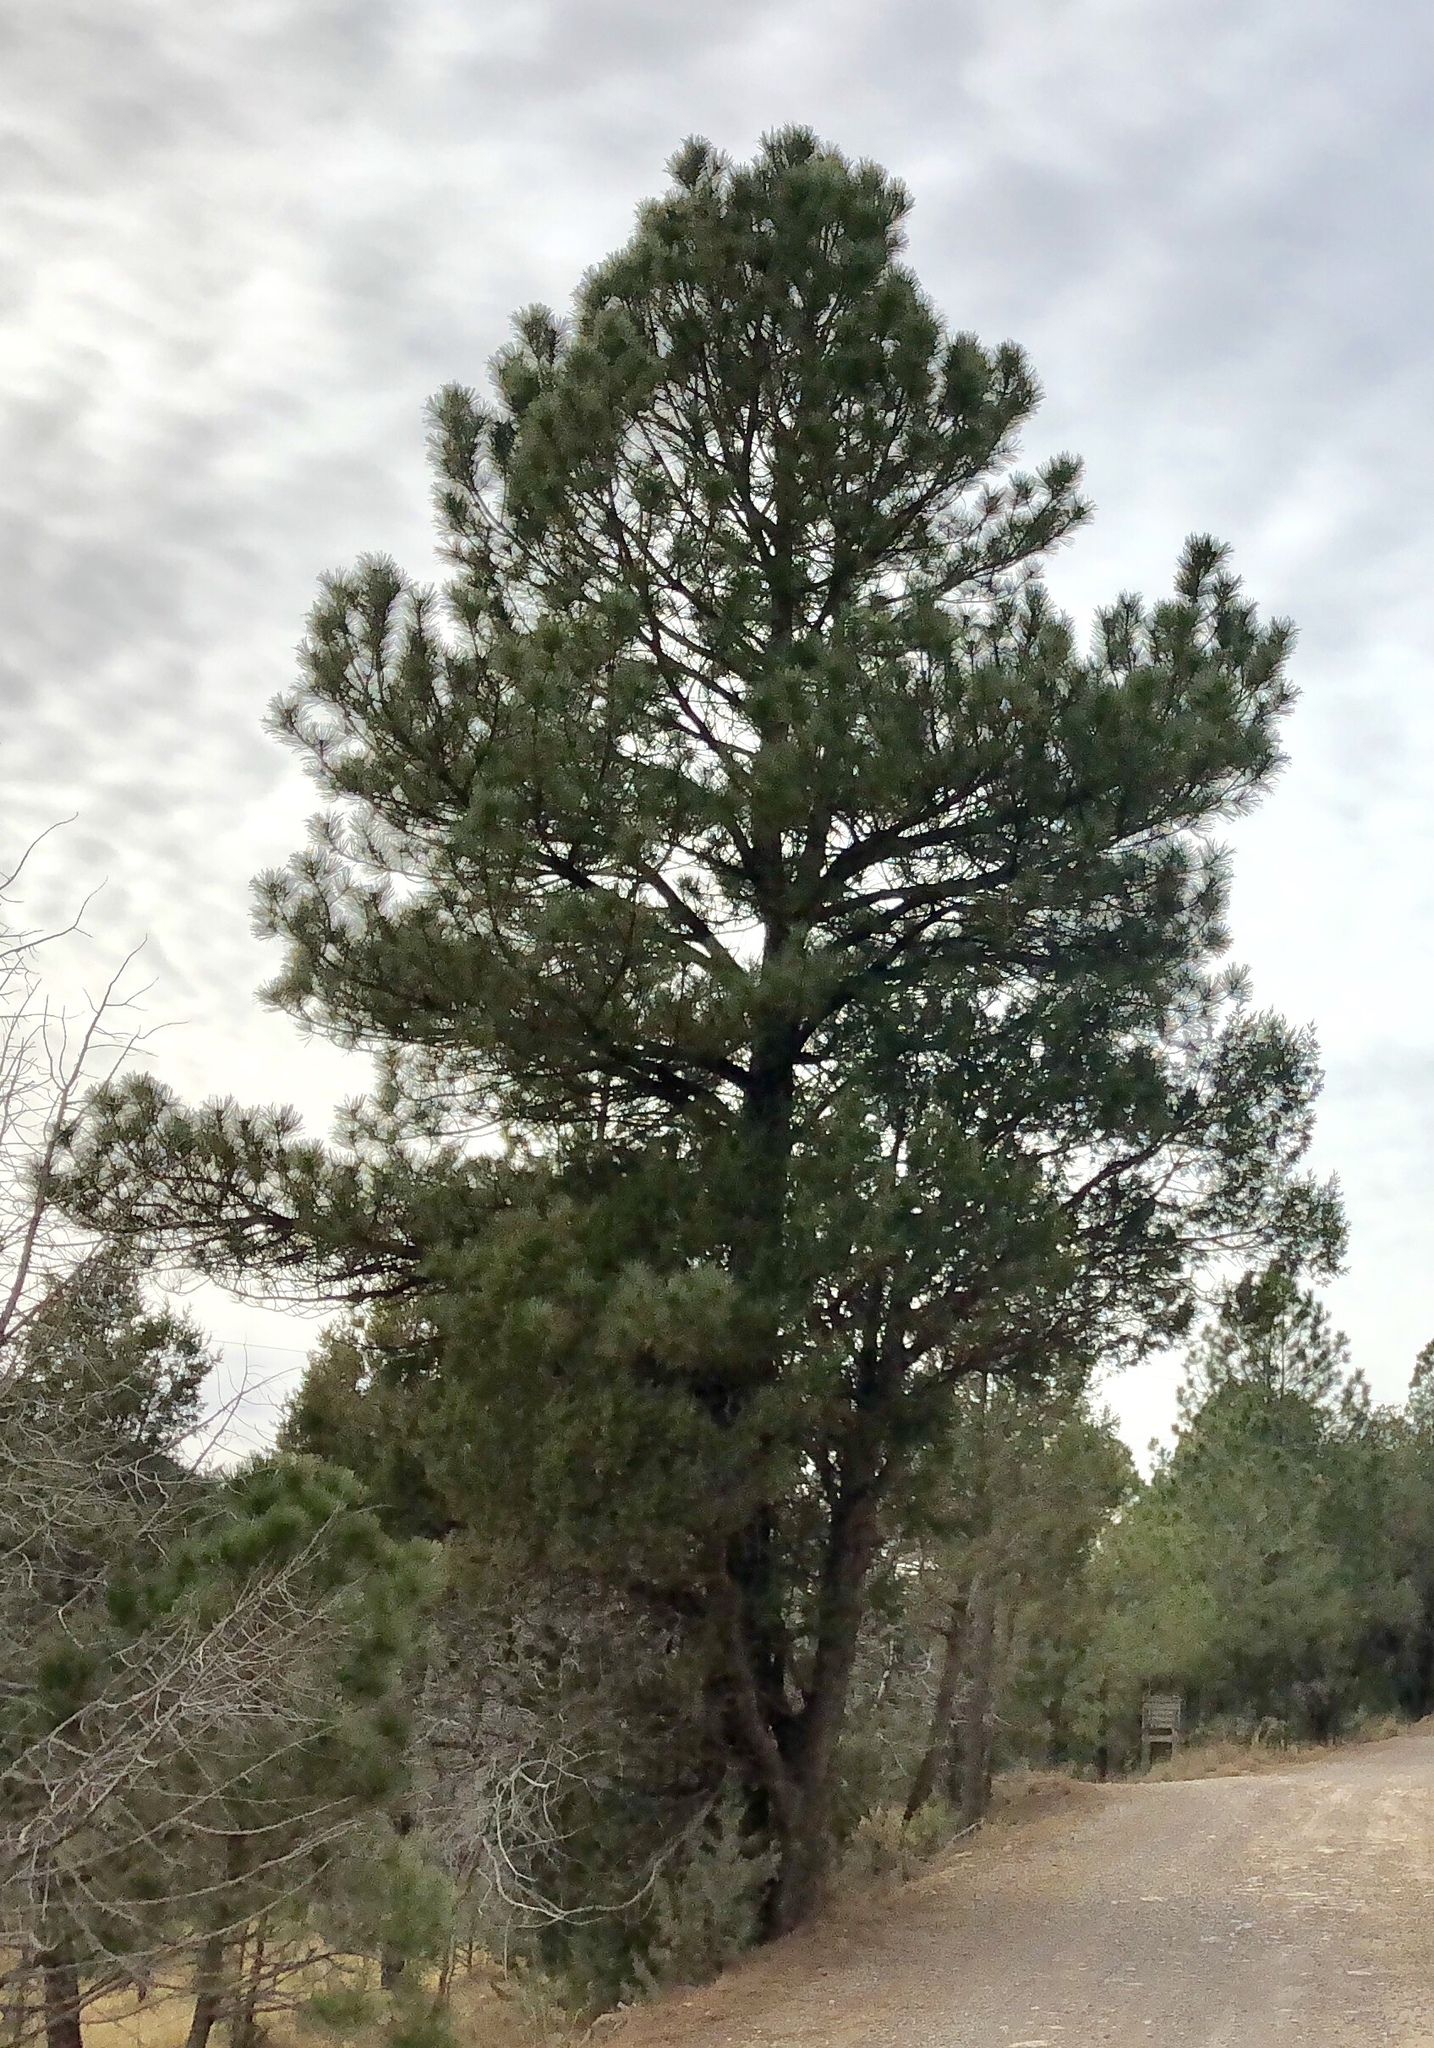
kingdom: Plantae
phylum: Tracheophyta
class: Pinopsida
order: Pinales
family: Pinaceae
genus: Pinus
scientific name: Pinus ponderosa
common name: Western yellow-pine
